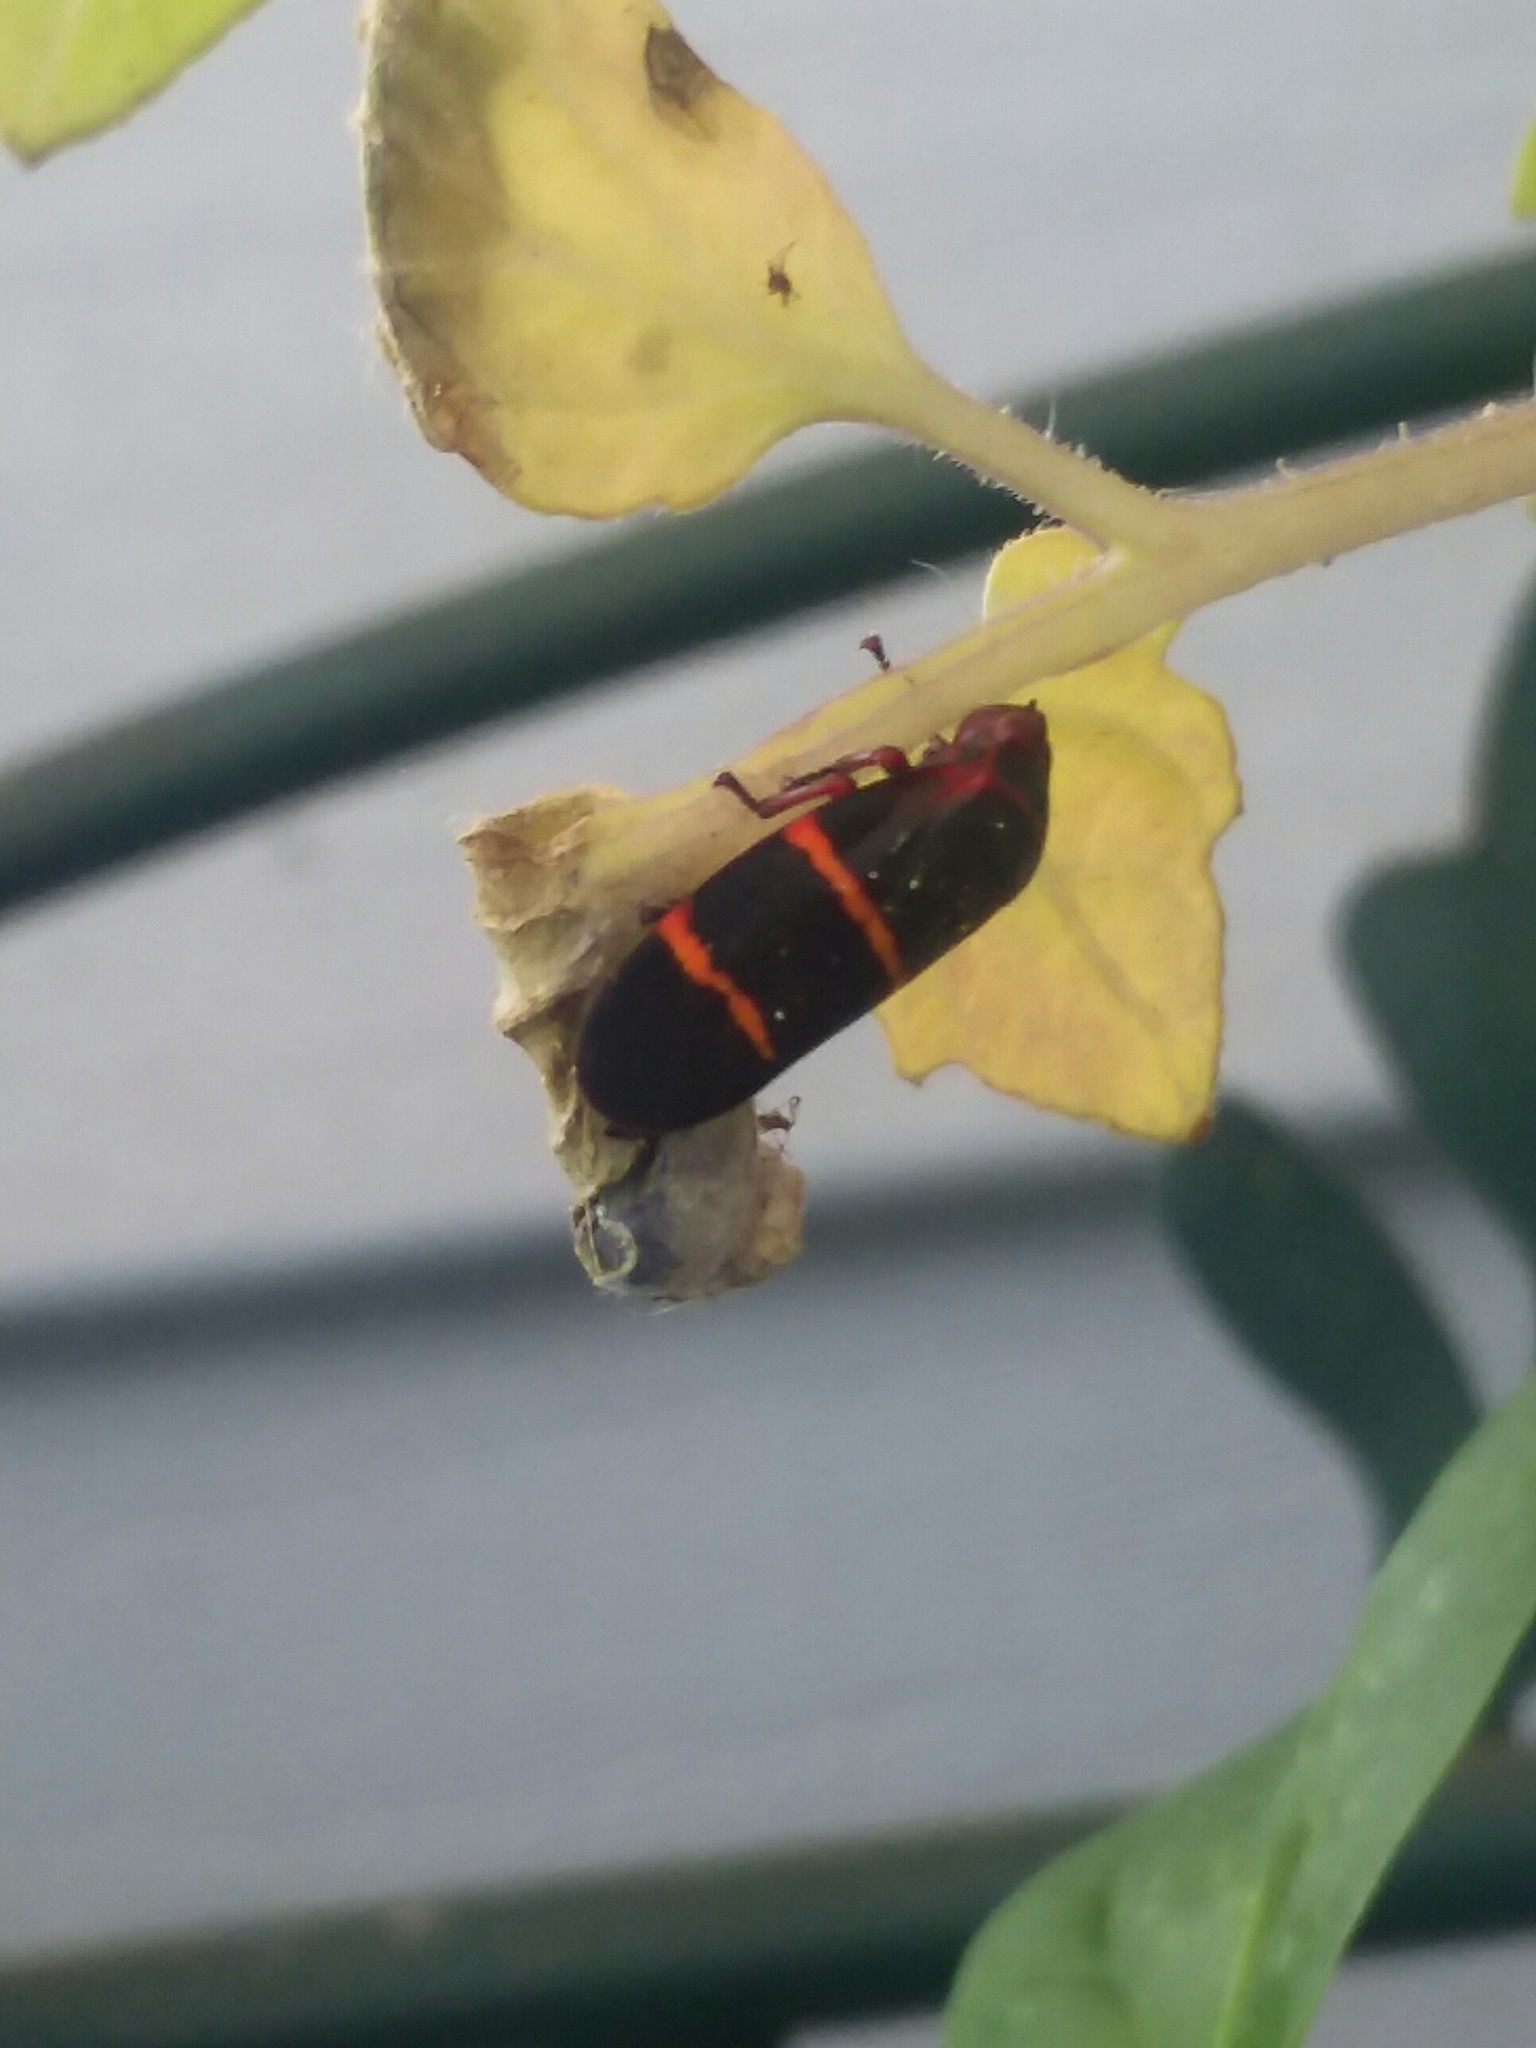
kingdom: Animalia
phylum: Arthropoda
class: Insecta
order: Hemiptera
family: Cercopidae
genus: Prosapia
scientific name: Prosapia bicincta
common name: Twolined spittlebug
